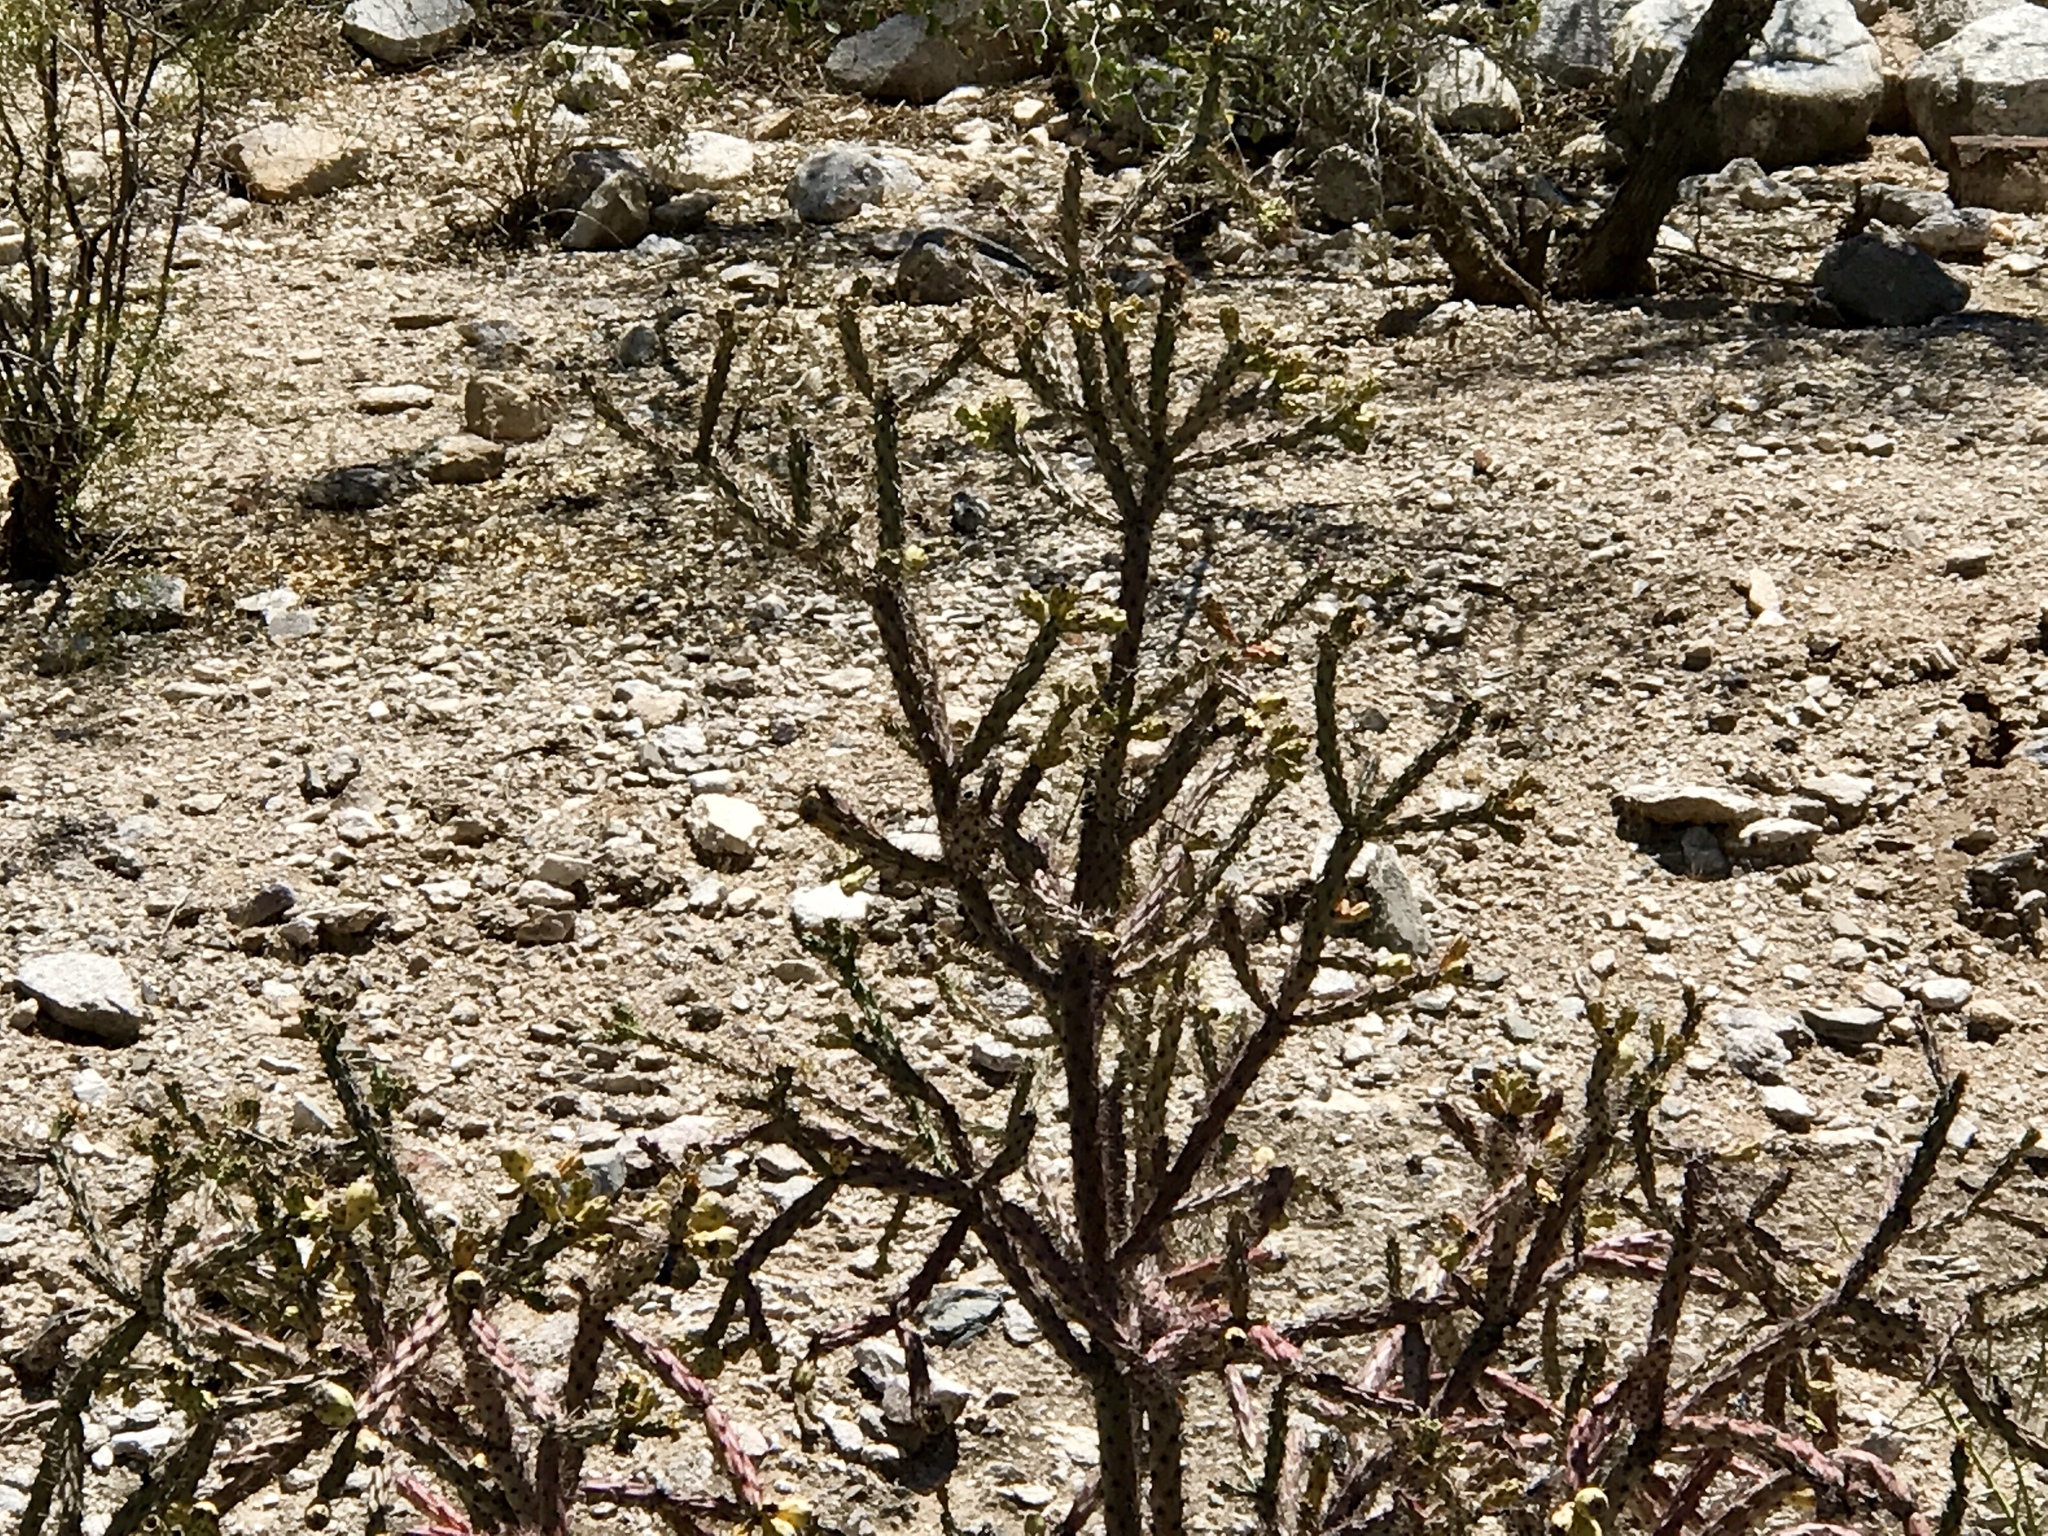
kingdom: Plantae
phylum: Tracheophyta
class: Magnoliopsida
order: Caryophyllales
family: Cactaceae
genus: Cylindropuntia
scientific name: Cylindropuntia thurberi
